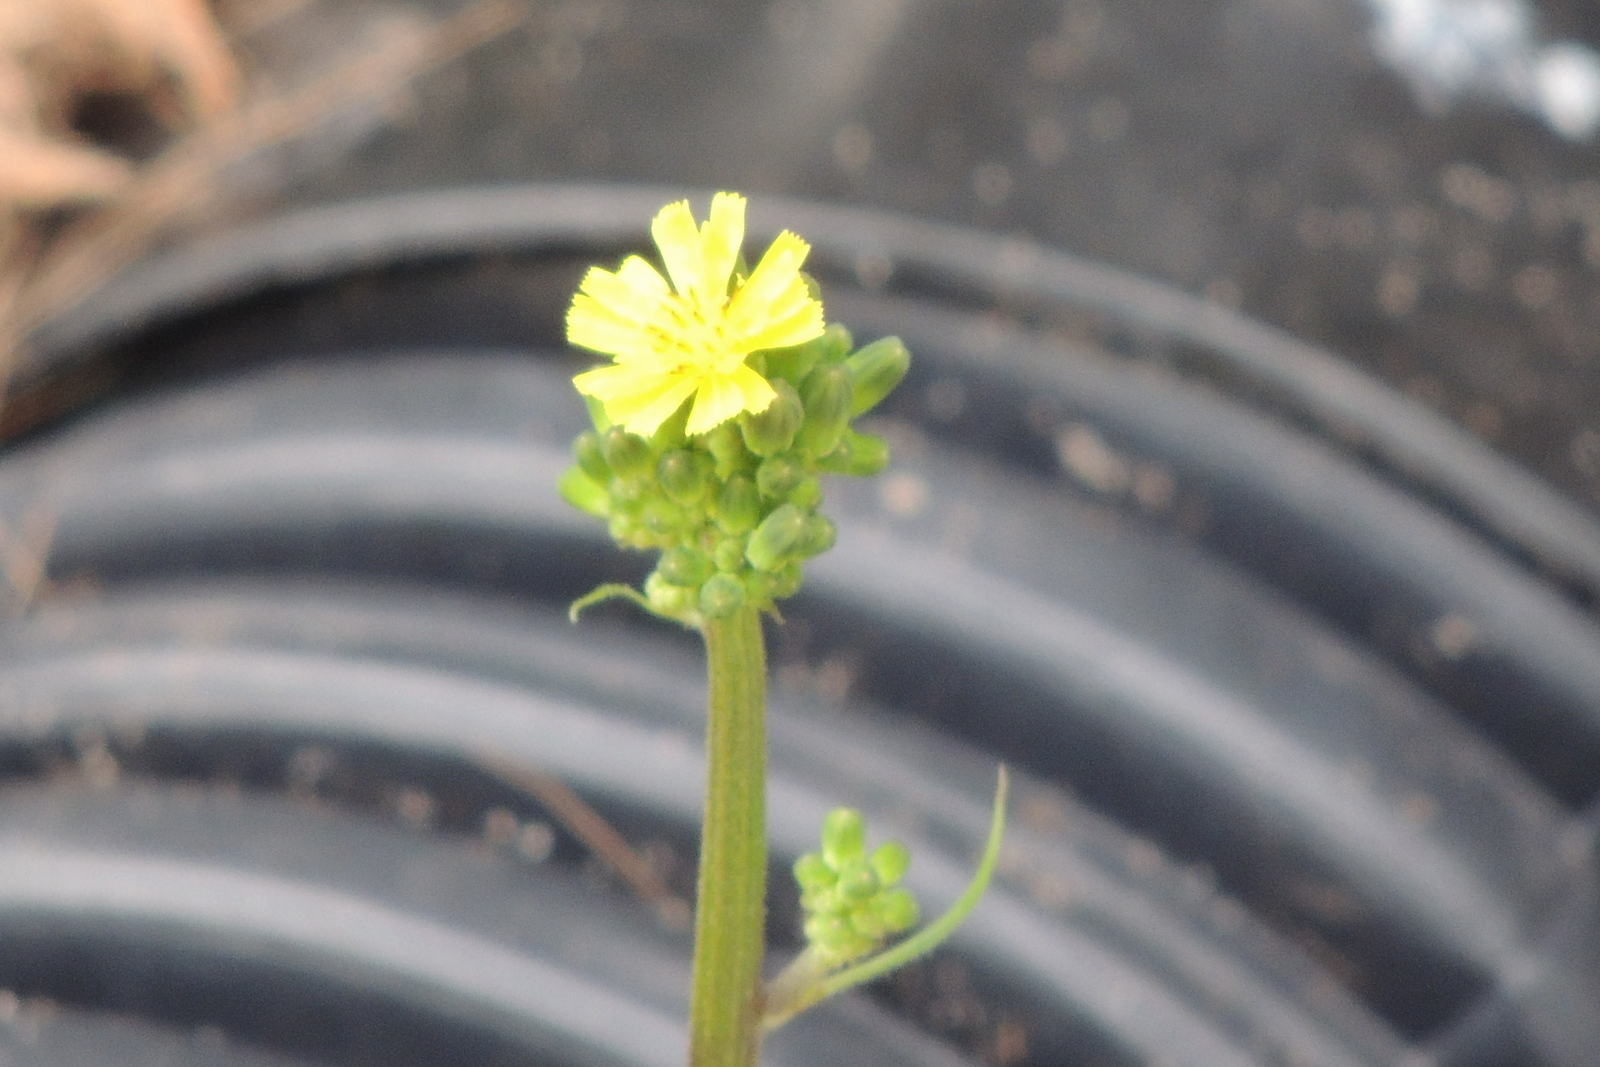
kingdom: Plantae
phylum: Tracheophyta
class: Magnoliopsida
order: Asterales
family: Asteraceae
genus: Youngia
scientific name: Youngia japonica
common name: Oriental false hawksbeard
